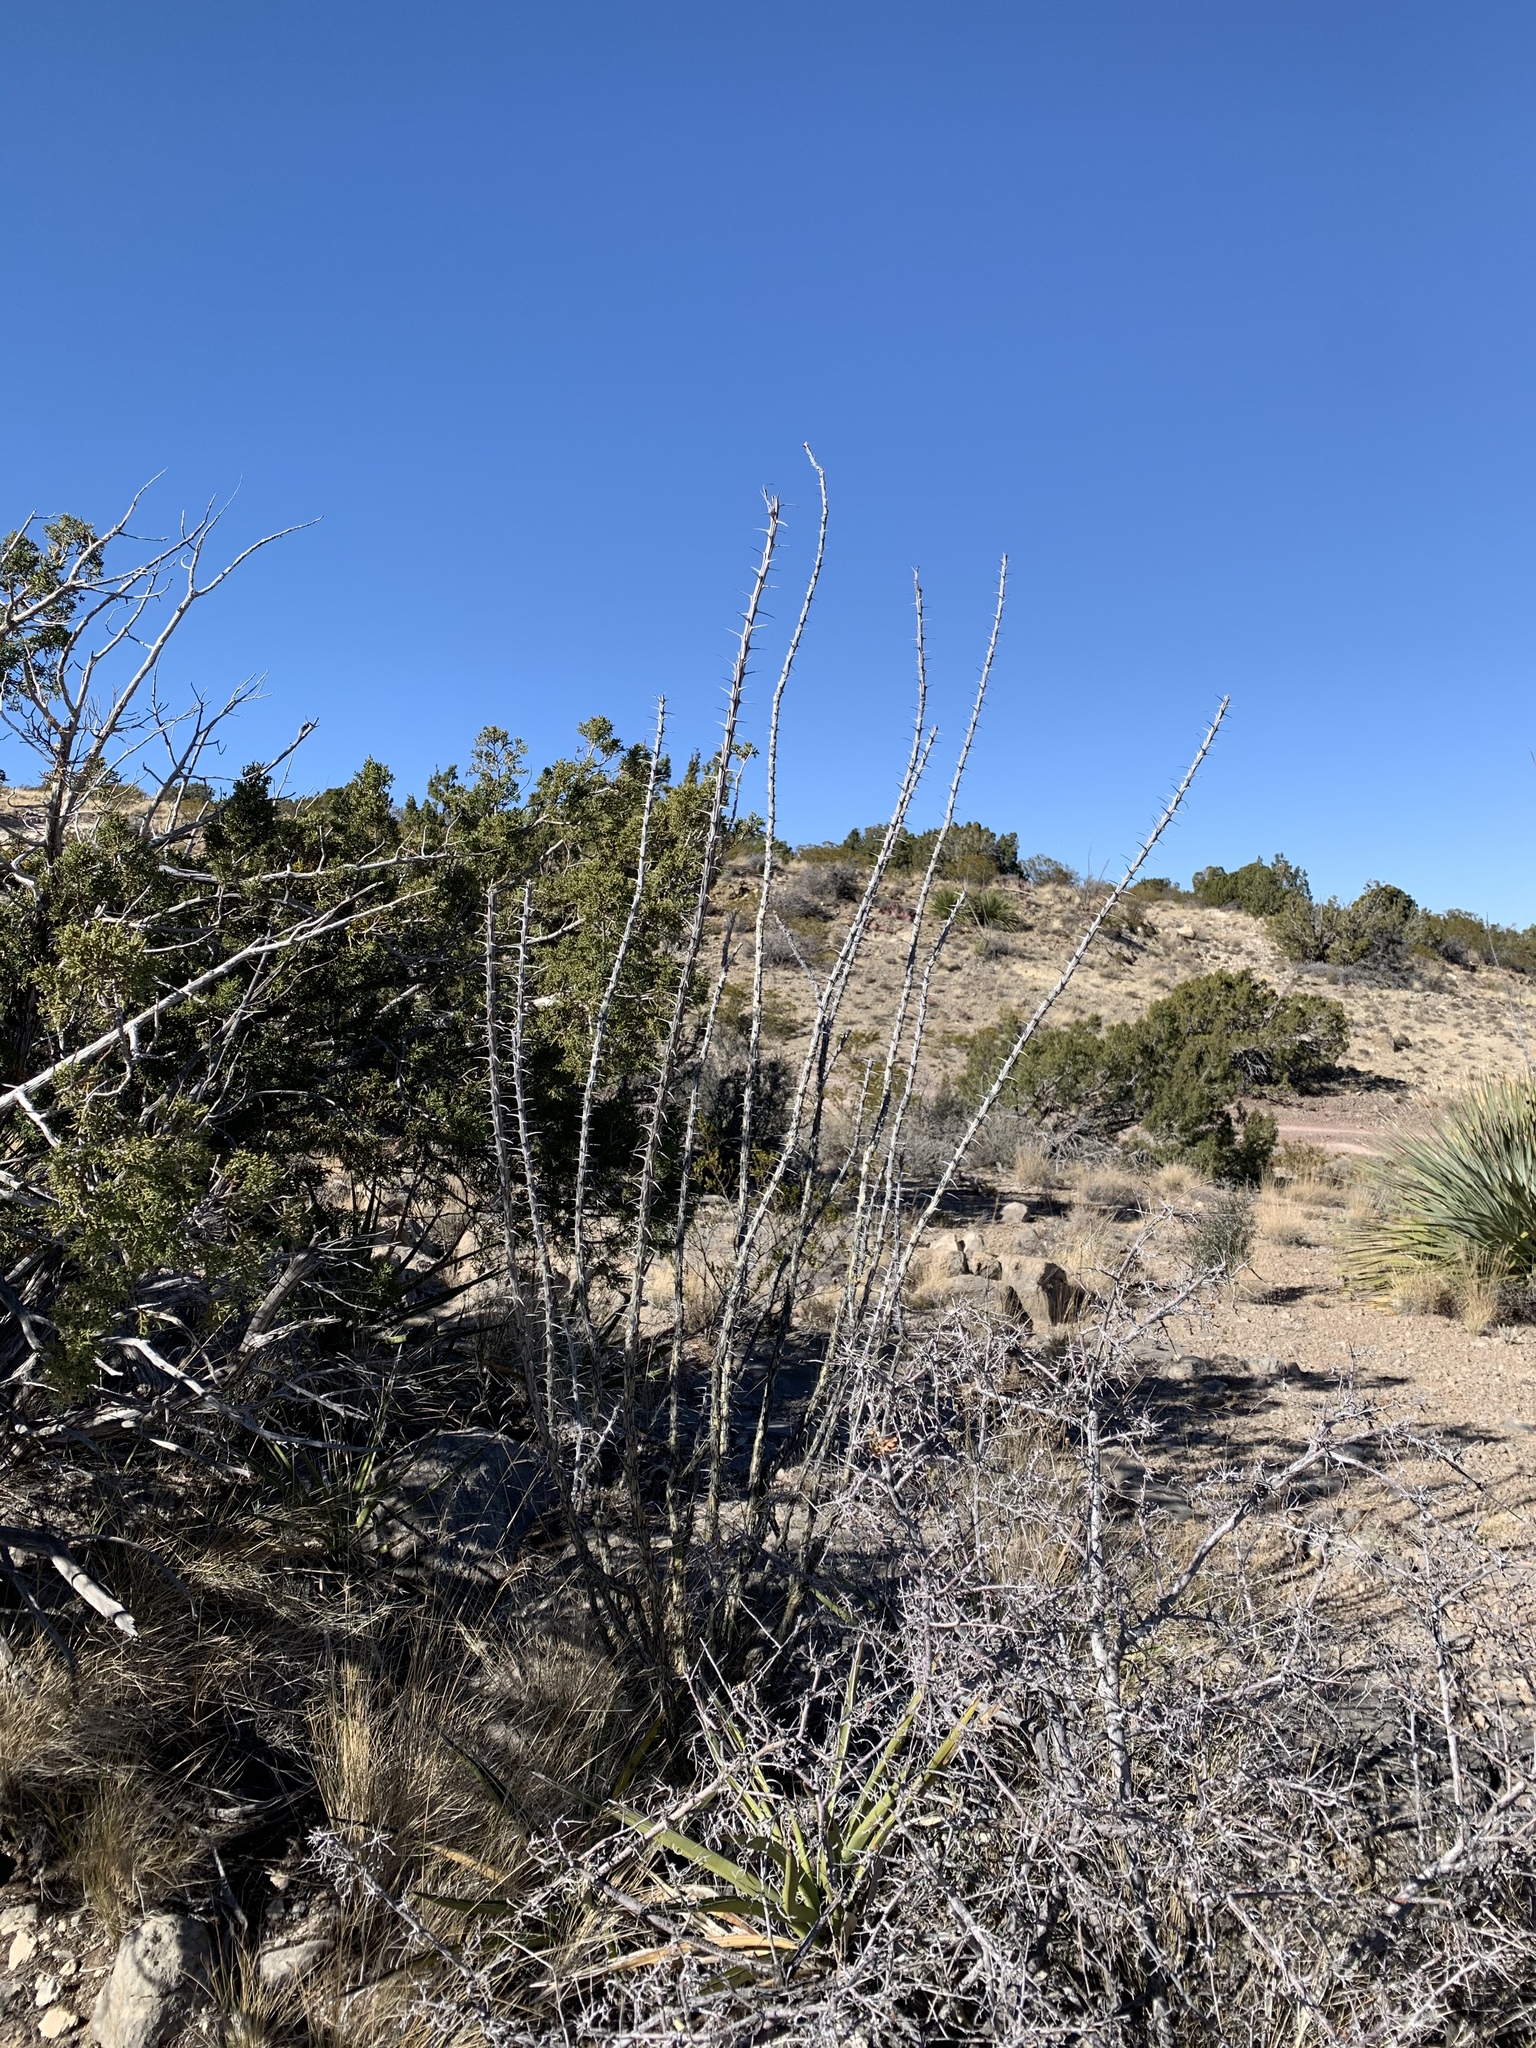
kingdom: Plantae
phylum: Tracheophyta
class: Magnoliopsida
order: Ericales
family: Fouquieriaceae
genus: Fouquieria
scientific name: Fouquieria splendens
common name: Vine-cactus
